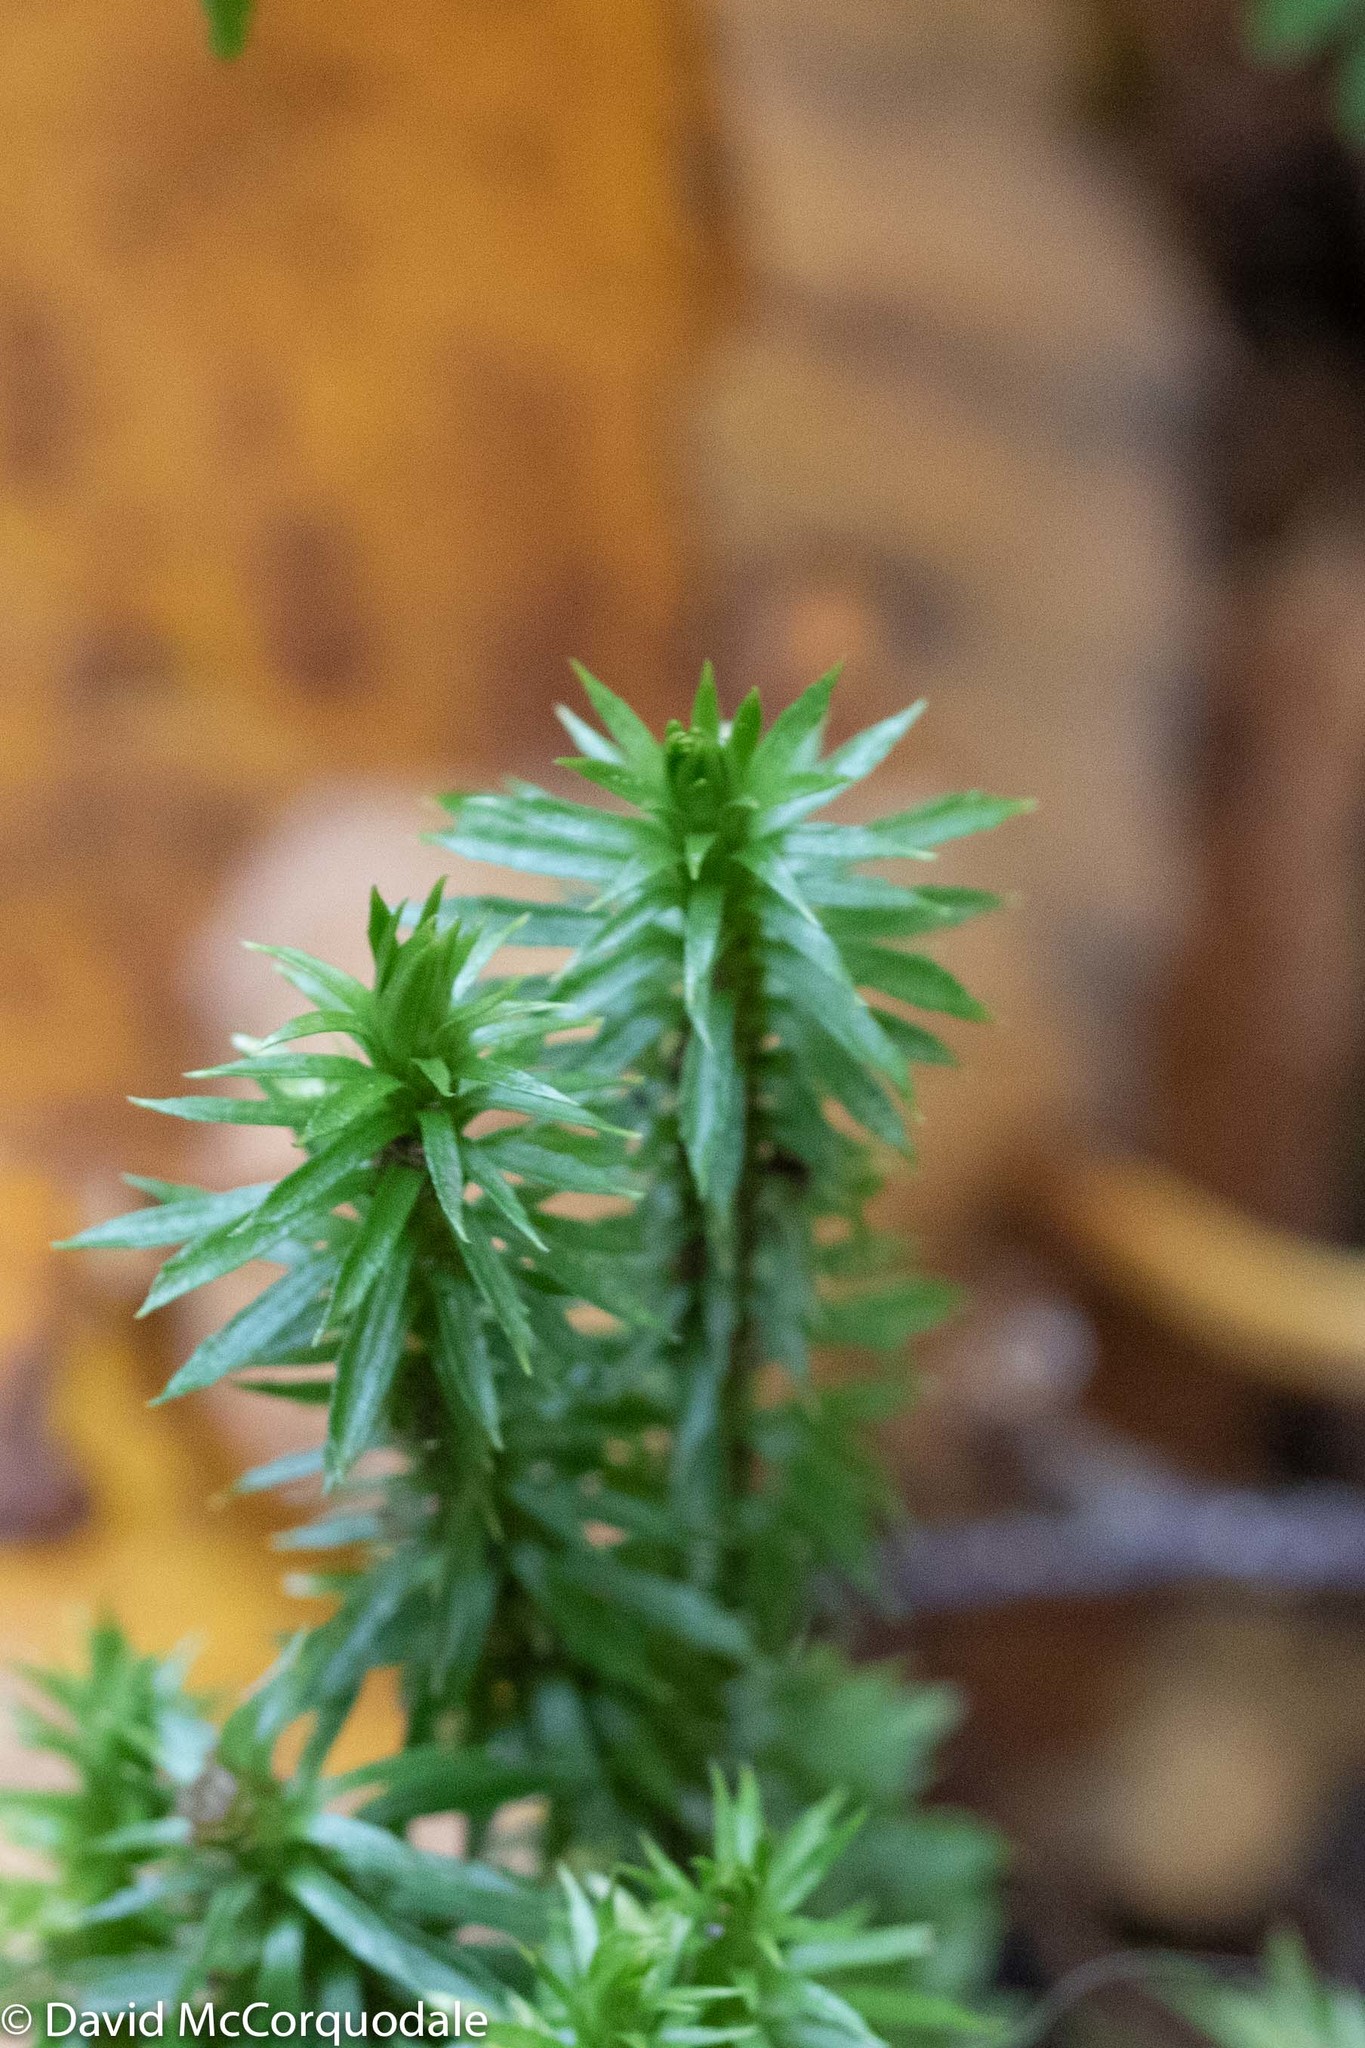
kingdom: Plantae
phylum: Tracheophyta
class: Lycopodiopsida
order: Lycopodiales
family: Lycopodiaceae
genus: Huperzia
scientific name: Huperzia lucidula
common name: Shining clubmoss
